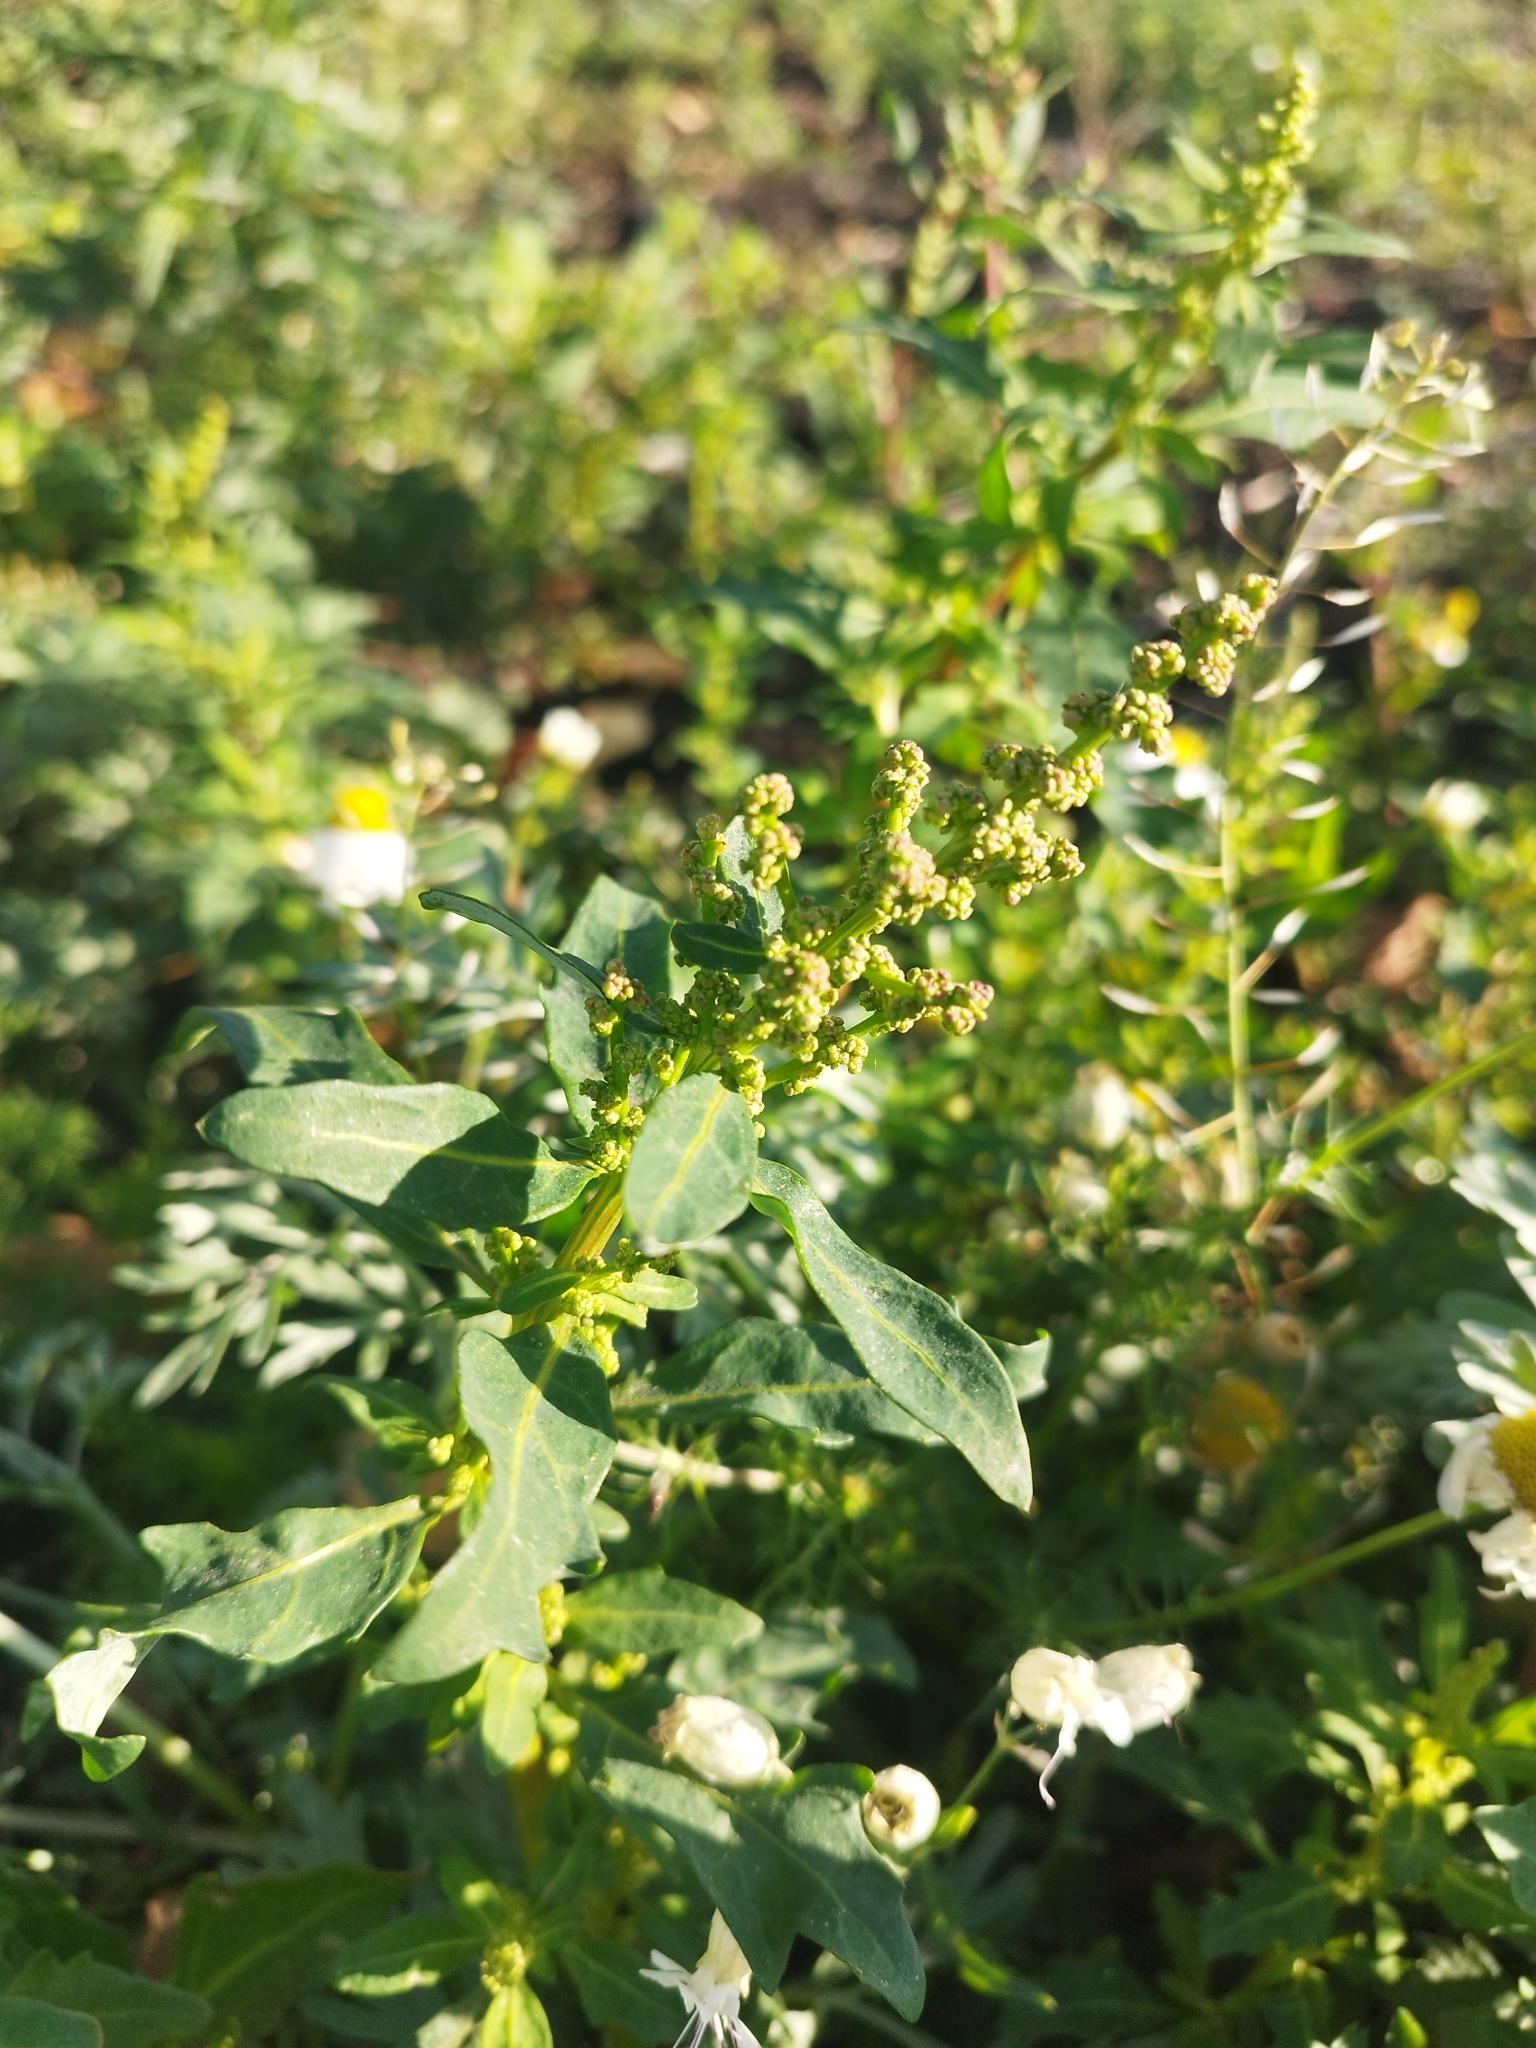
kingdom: Plantae
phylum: Tracheophyta
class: Magnoliopsida
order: Caryophyllales
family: Amaranthaceae
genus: Oxybasis
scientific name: Oxybasis glauca
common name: Glaucous goosefoot
